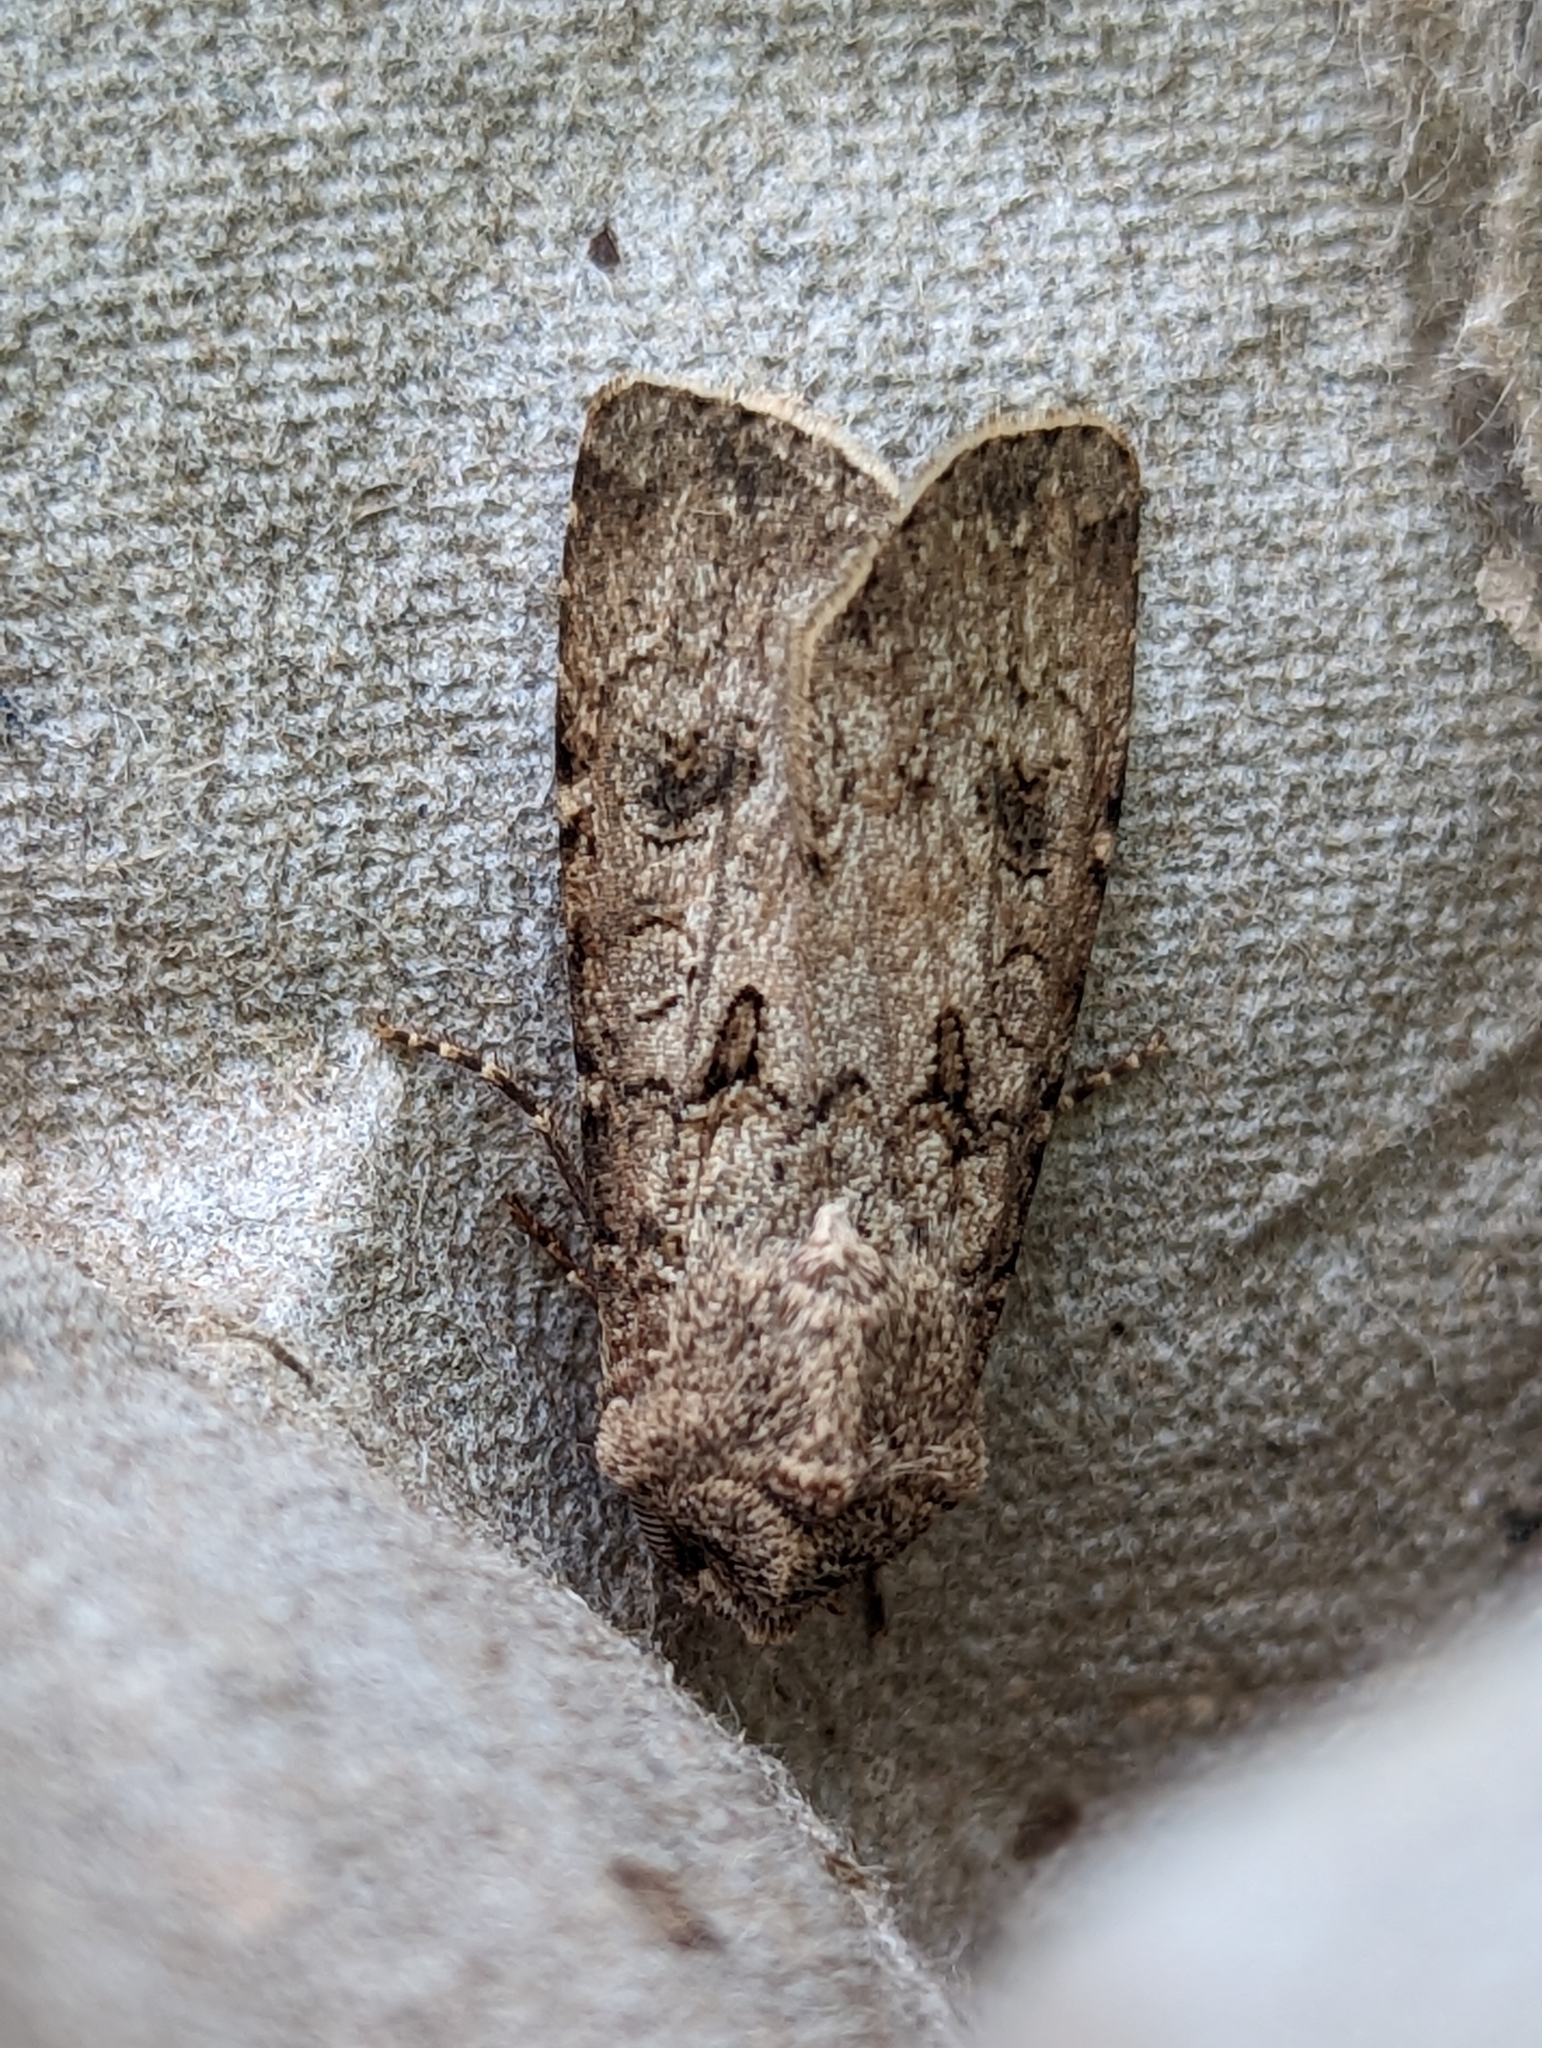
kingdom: Animalia
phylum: Arthropoda
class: Insecta
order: Lepidoptera
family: Noctuidae
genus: Agrotis
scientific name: Agrotis segetum
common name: Turnip moth
